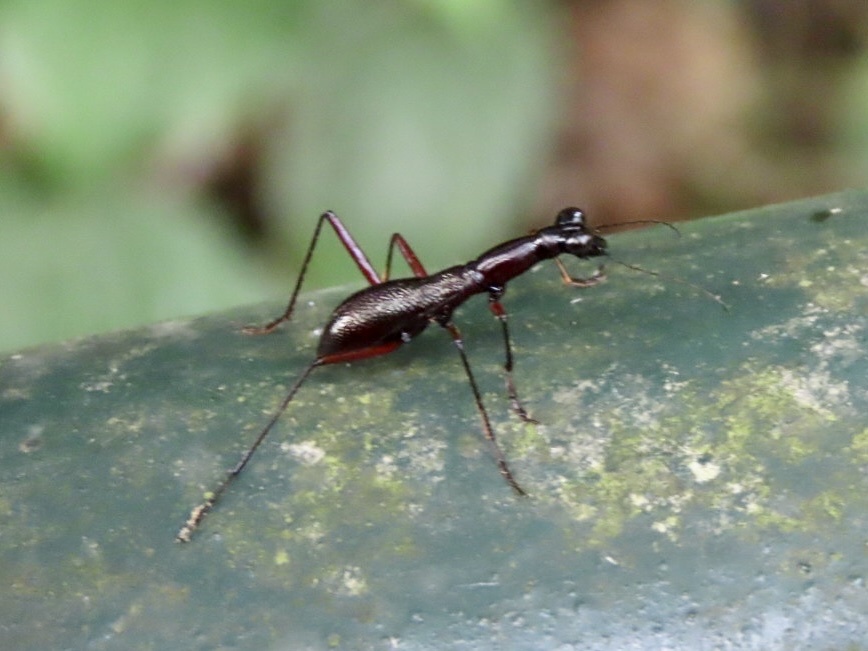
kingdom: Animalia
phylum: Arthropoda
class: Insecta
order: Coleoptera
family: Carabidae
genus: Tricondyla
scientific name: Tricondyla pulchripes
